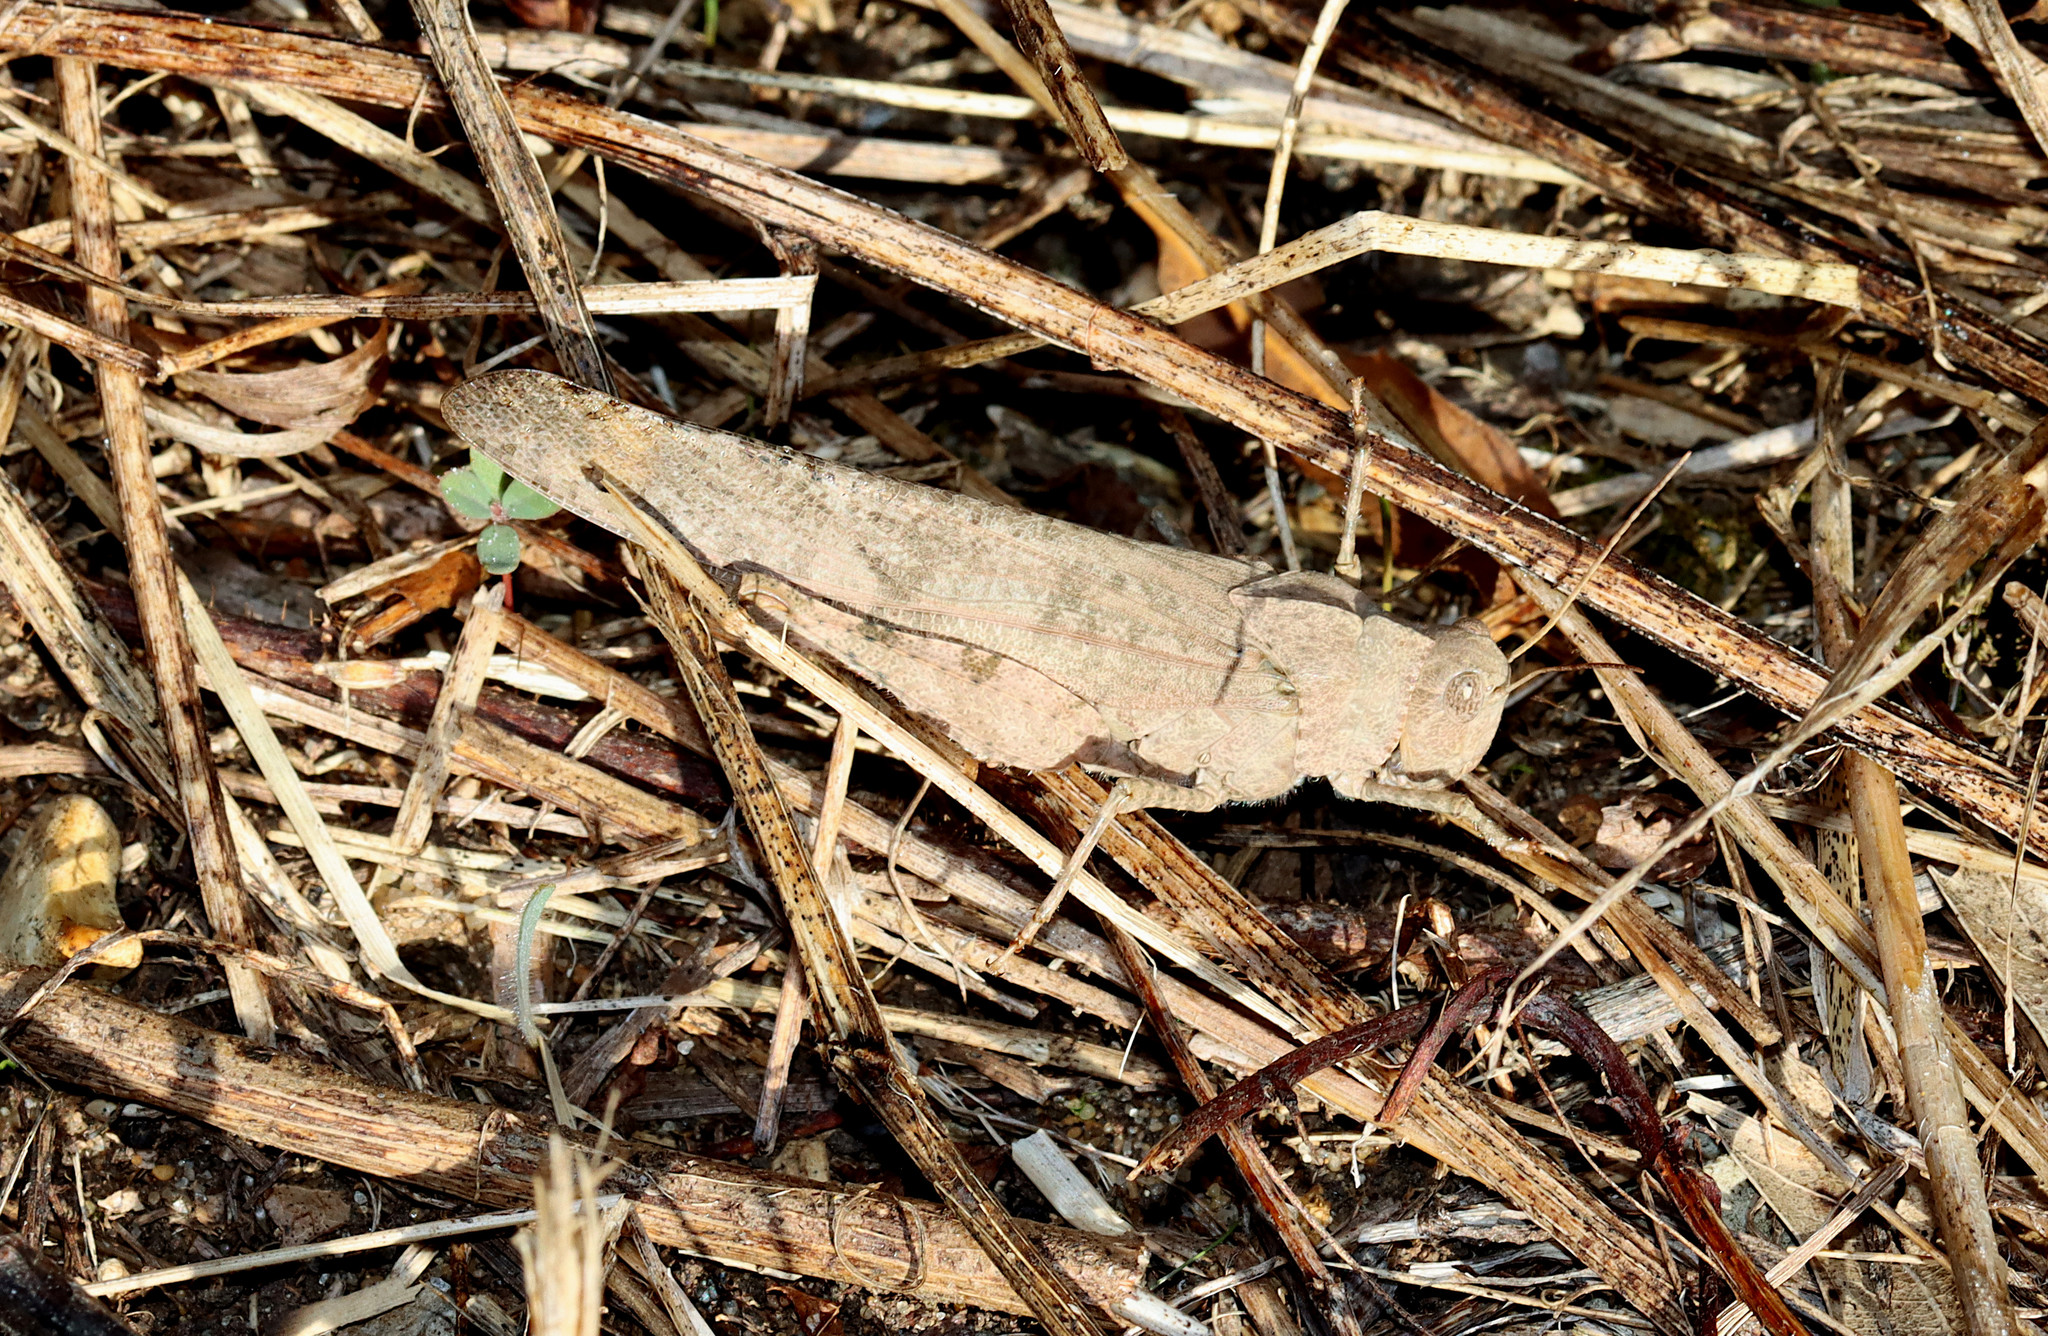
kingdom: Animalia
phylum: Arthropoda
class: Insecta
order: Orthoptera
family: Acrididae
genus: Dissosteira
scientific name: Dissosteira carolina
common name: Carolina grasshopper
